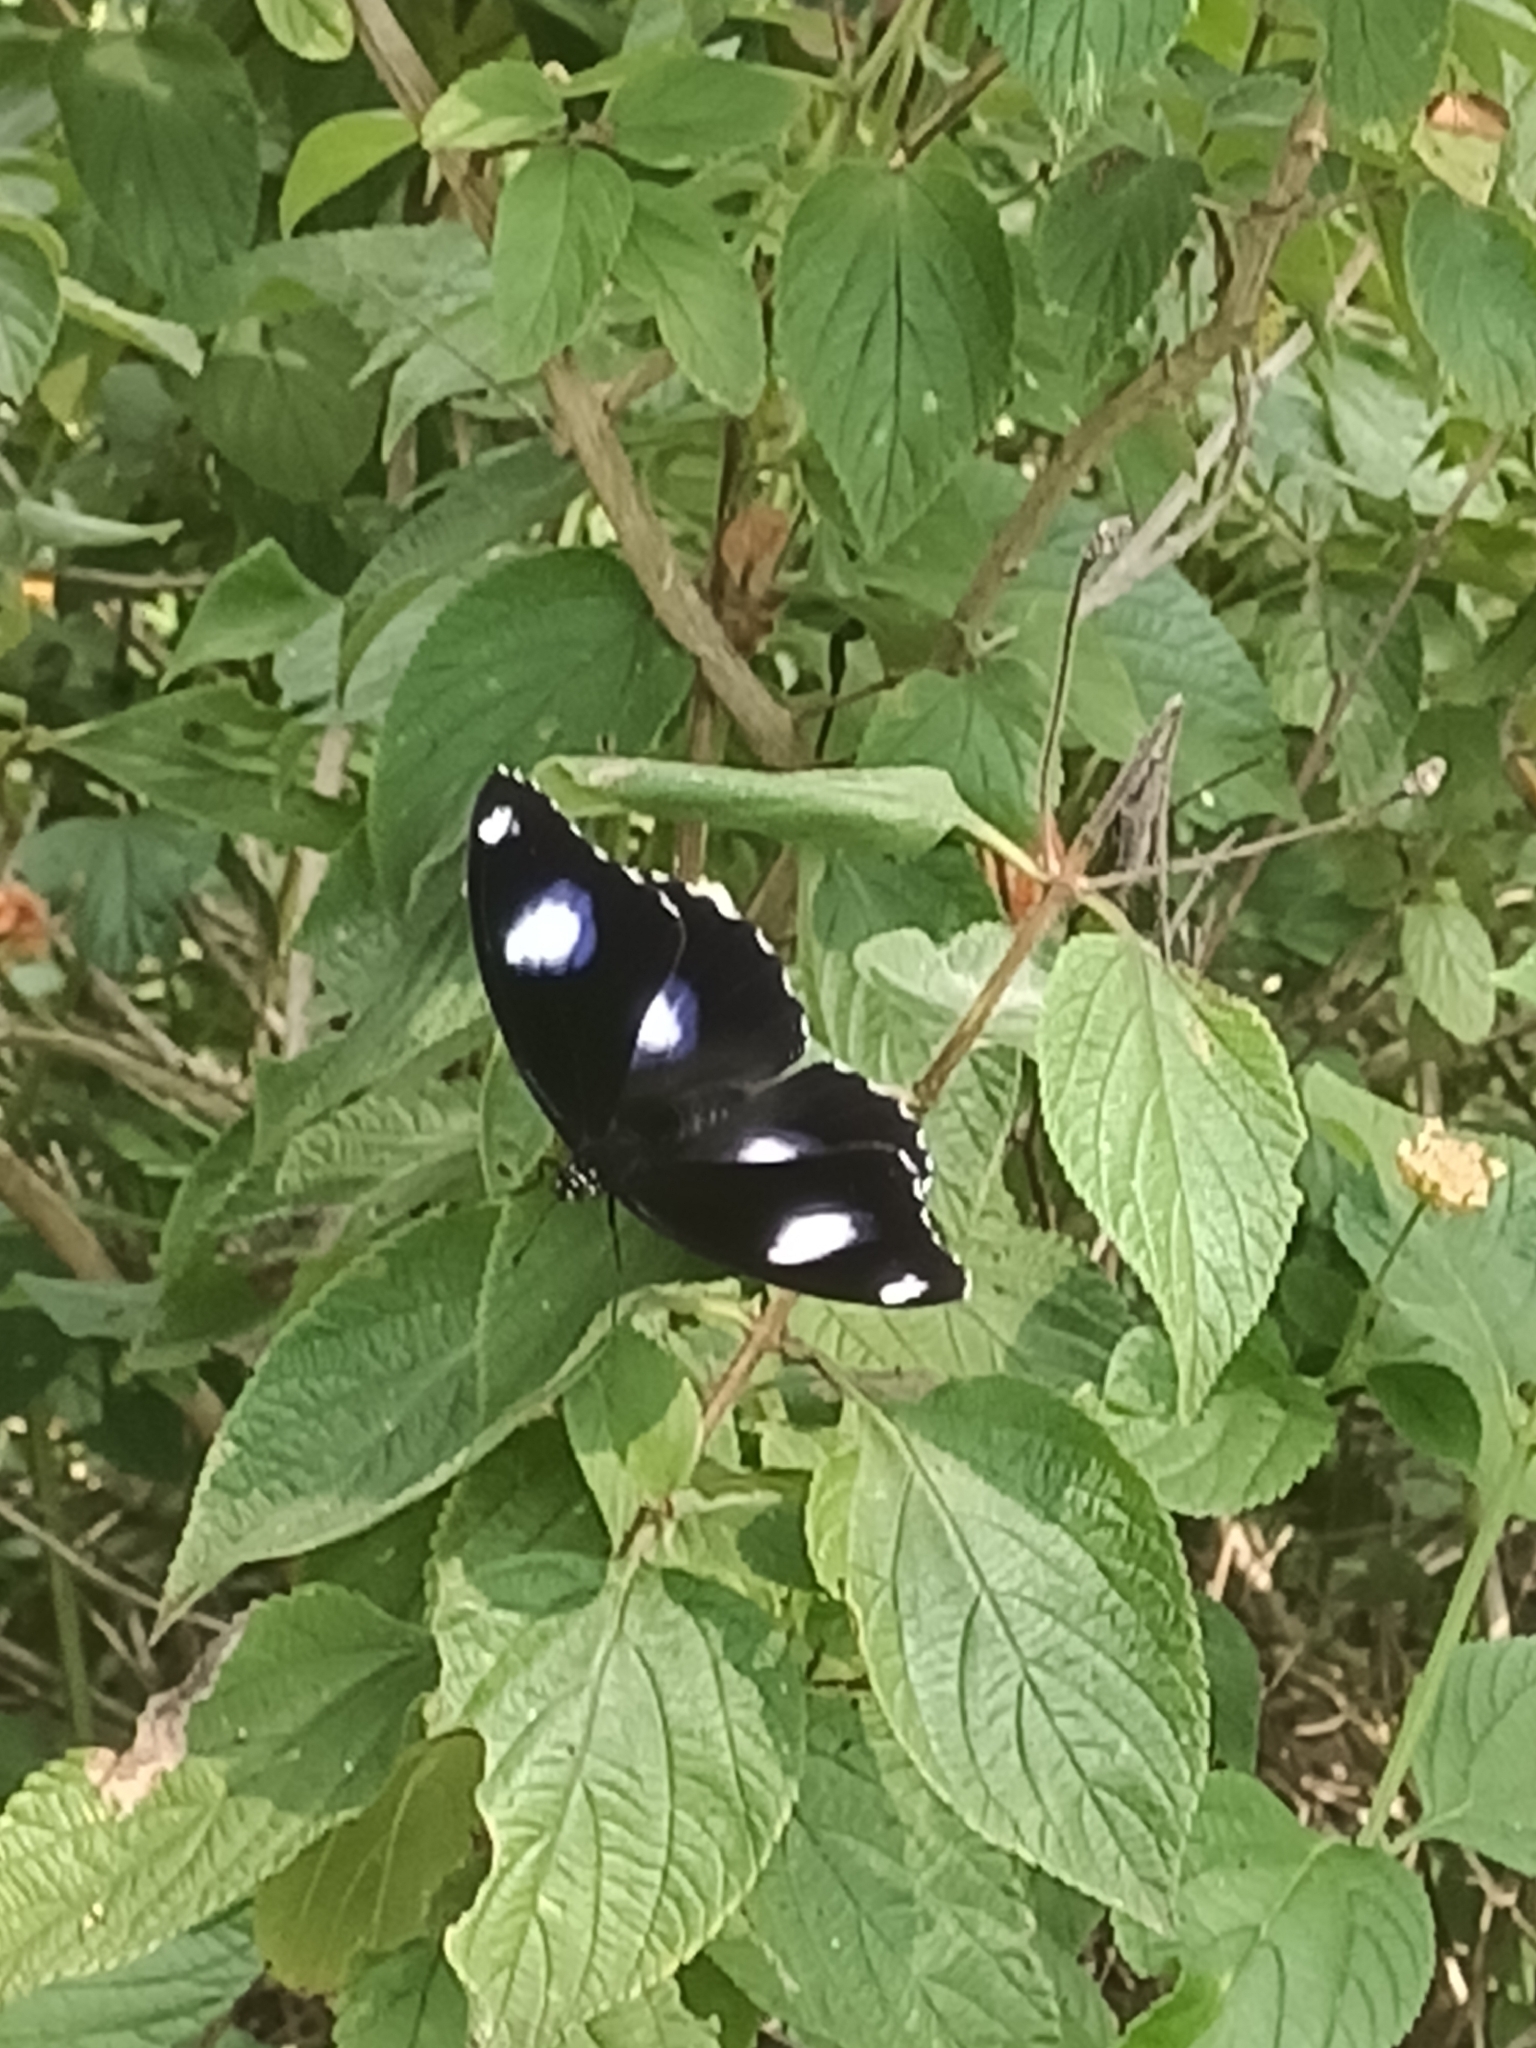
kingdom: Animalia
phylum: Arthropoda
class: Insecta
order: Lepidoptera
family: Nymphalidae
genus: Hypolimnas
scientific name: Hypolimnas bolina
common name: Great eggfly
